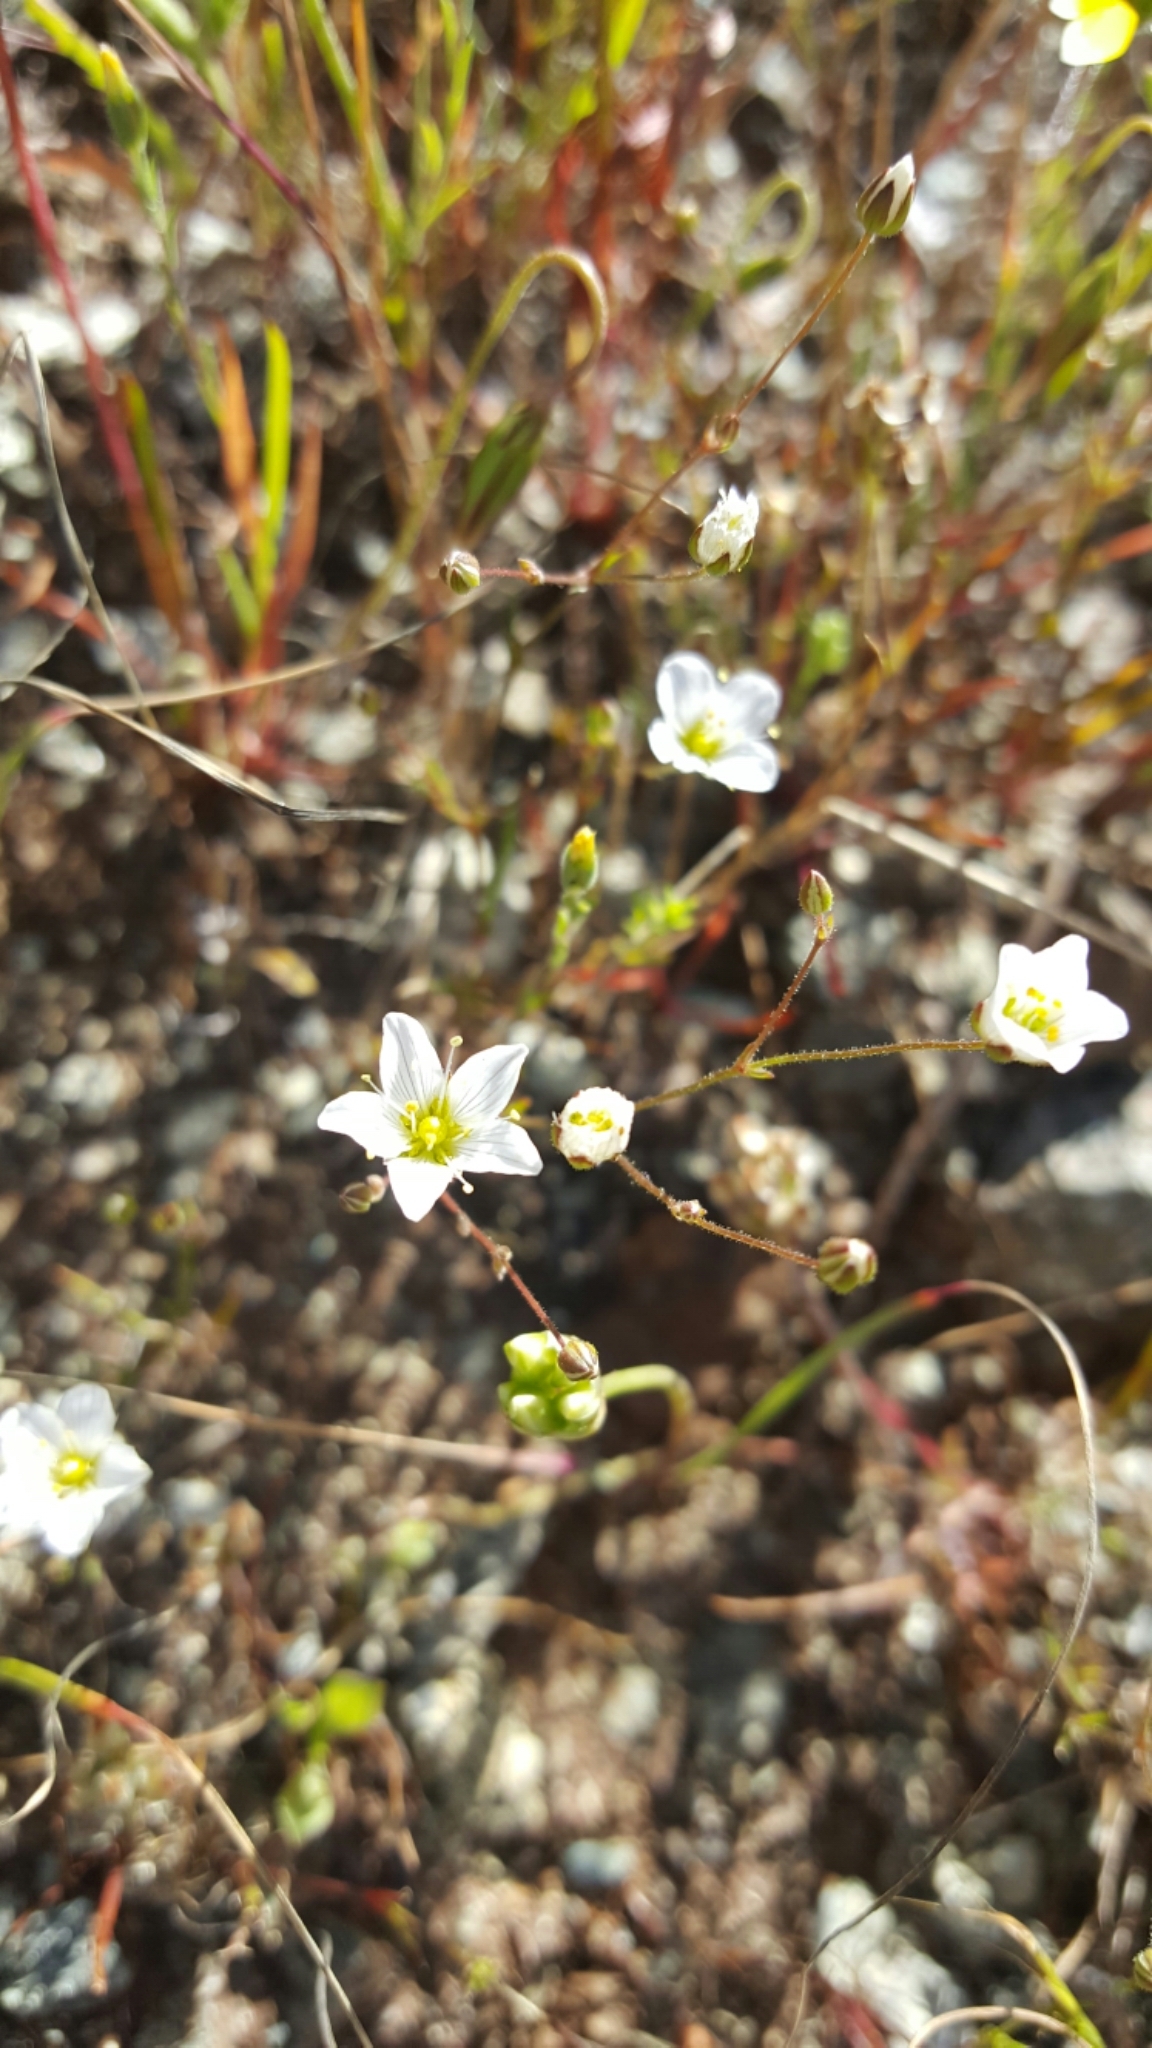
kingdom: Plantae
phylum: Tracheophyta
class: Magnoliopsida
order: Caryophyllales
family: Caryophyllaceae
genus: Sabulina
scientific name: Sabulina douglasii
